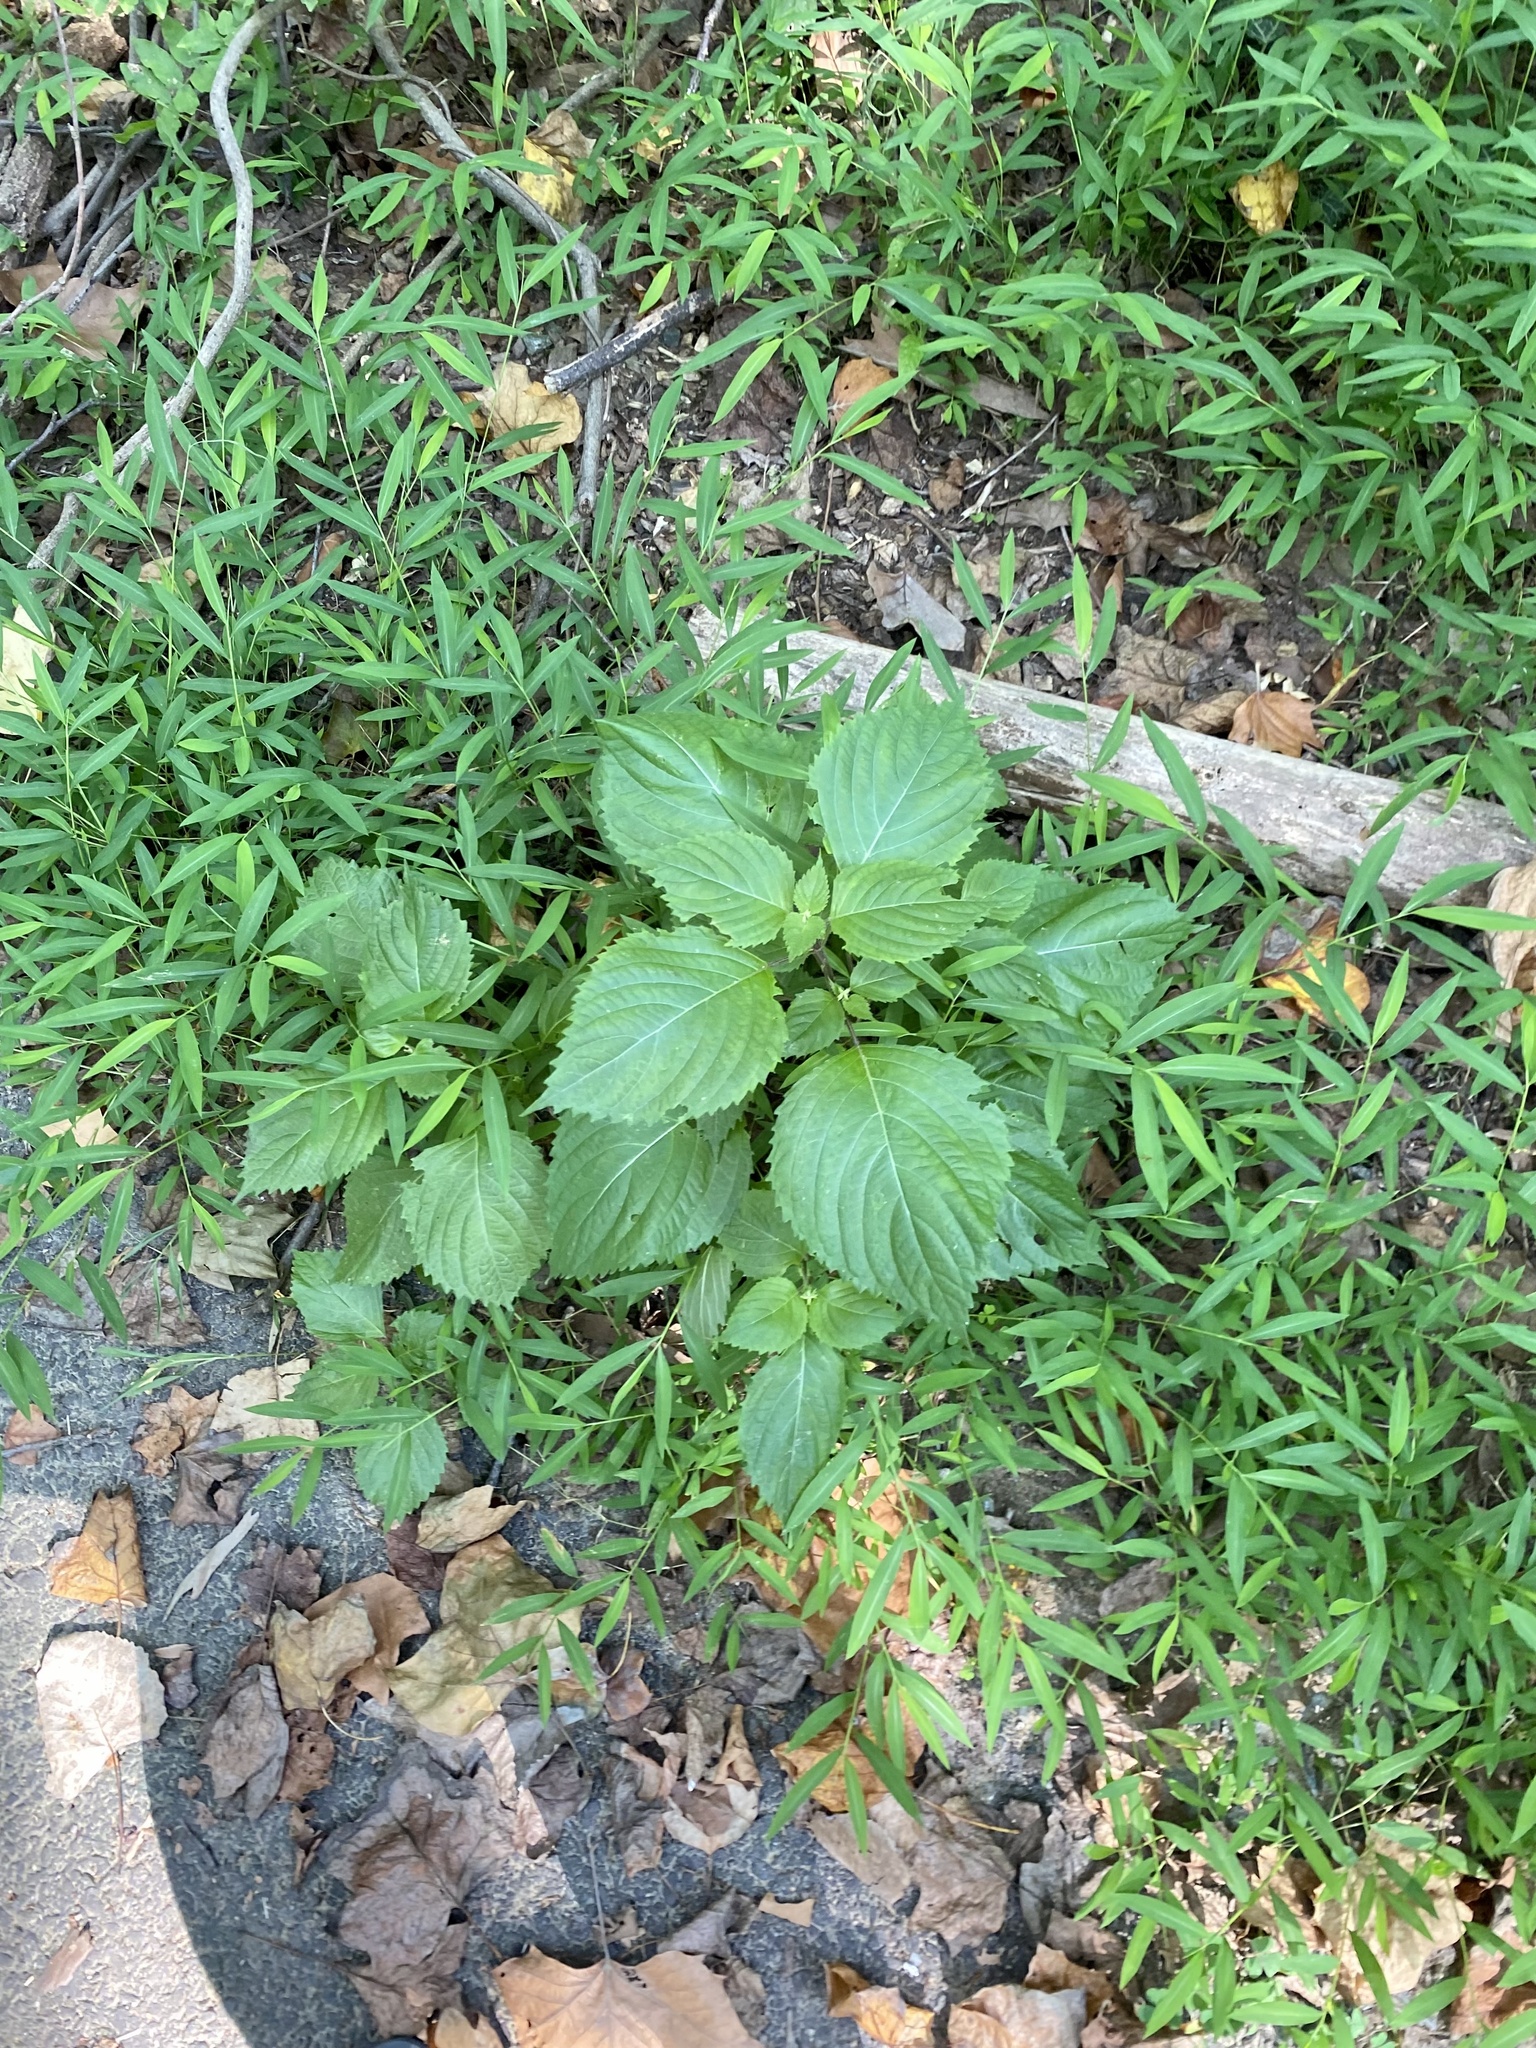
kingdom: Plantae
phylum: Tracheophyta
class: Magnoliopsida
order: Lamiales
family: Lamiaceae
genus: Perilla
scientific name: Perilla frutescens
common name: Perilla
